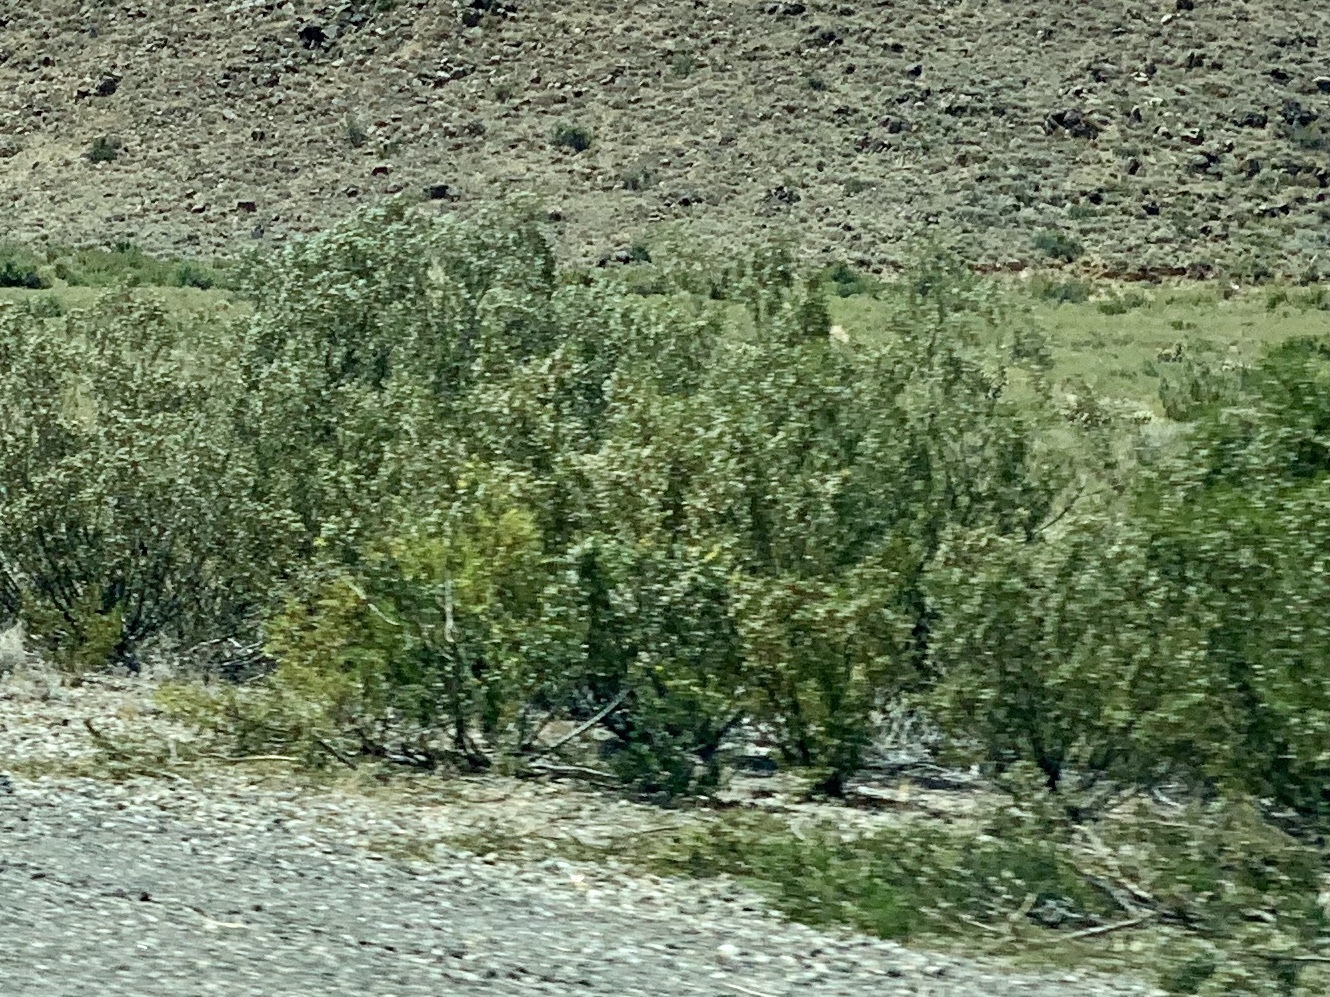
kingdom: Plantae
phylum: Tracheophyta
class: Magnoliopsida
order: Zygophyllales
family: Zygophyllaceae
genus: Larrea
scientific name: Larrea tridentata
